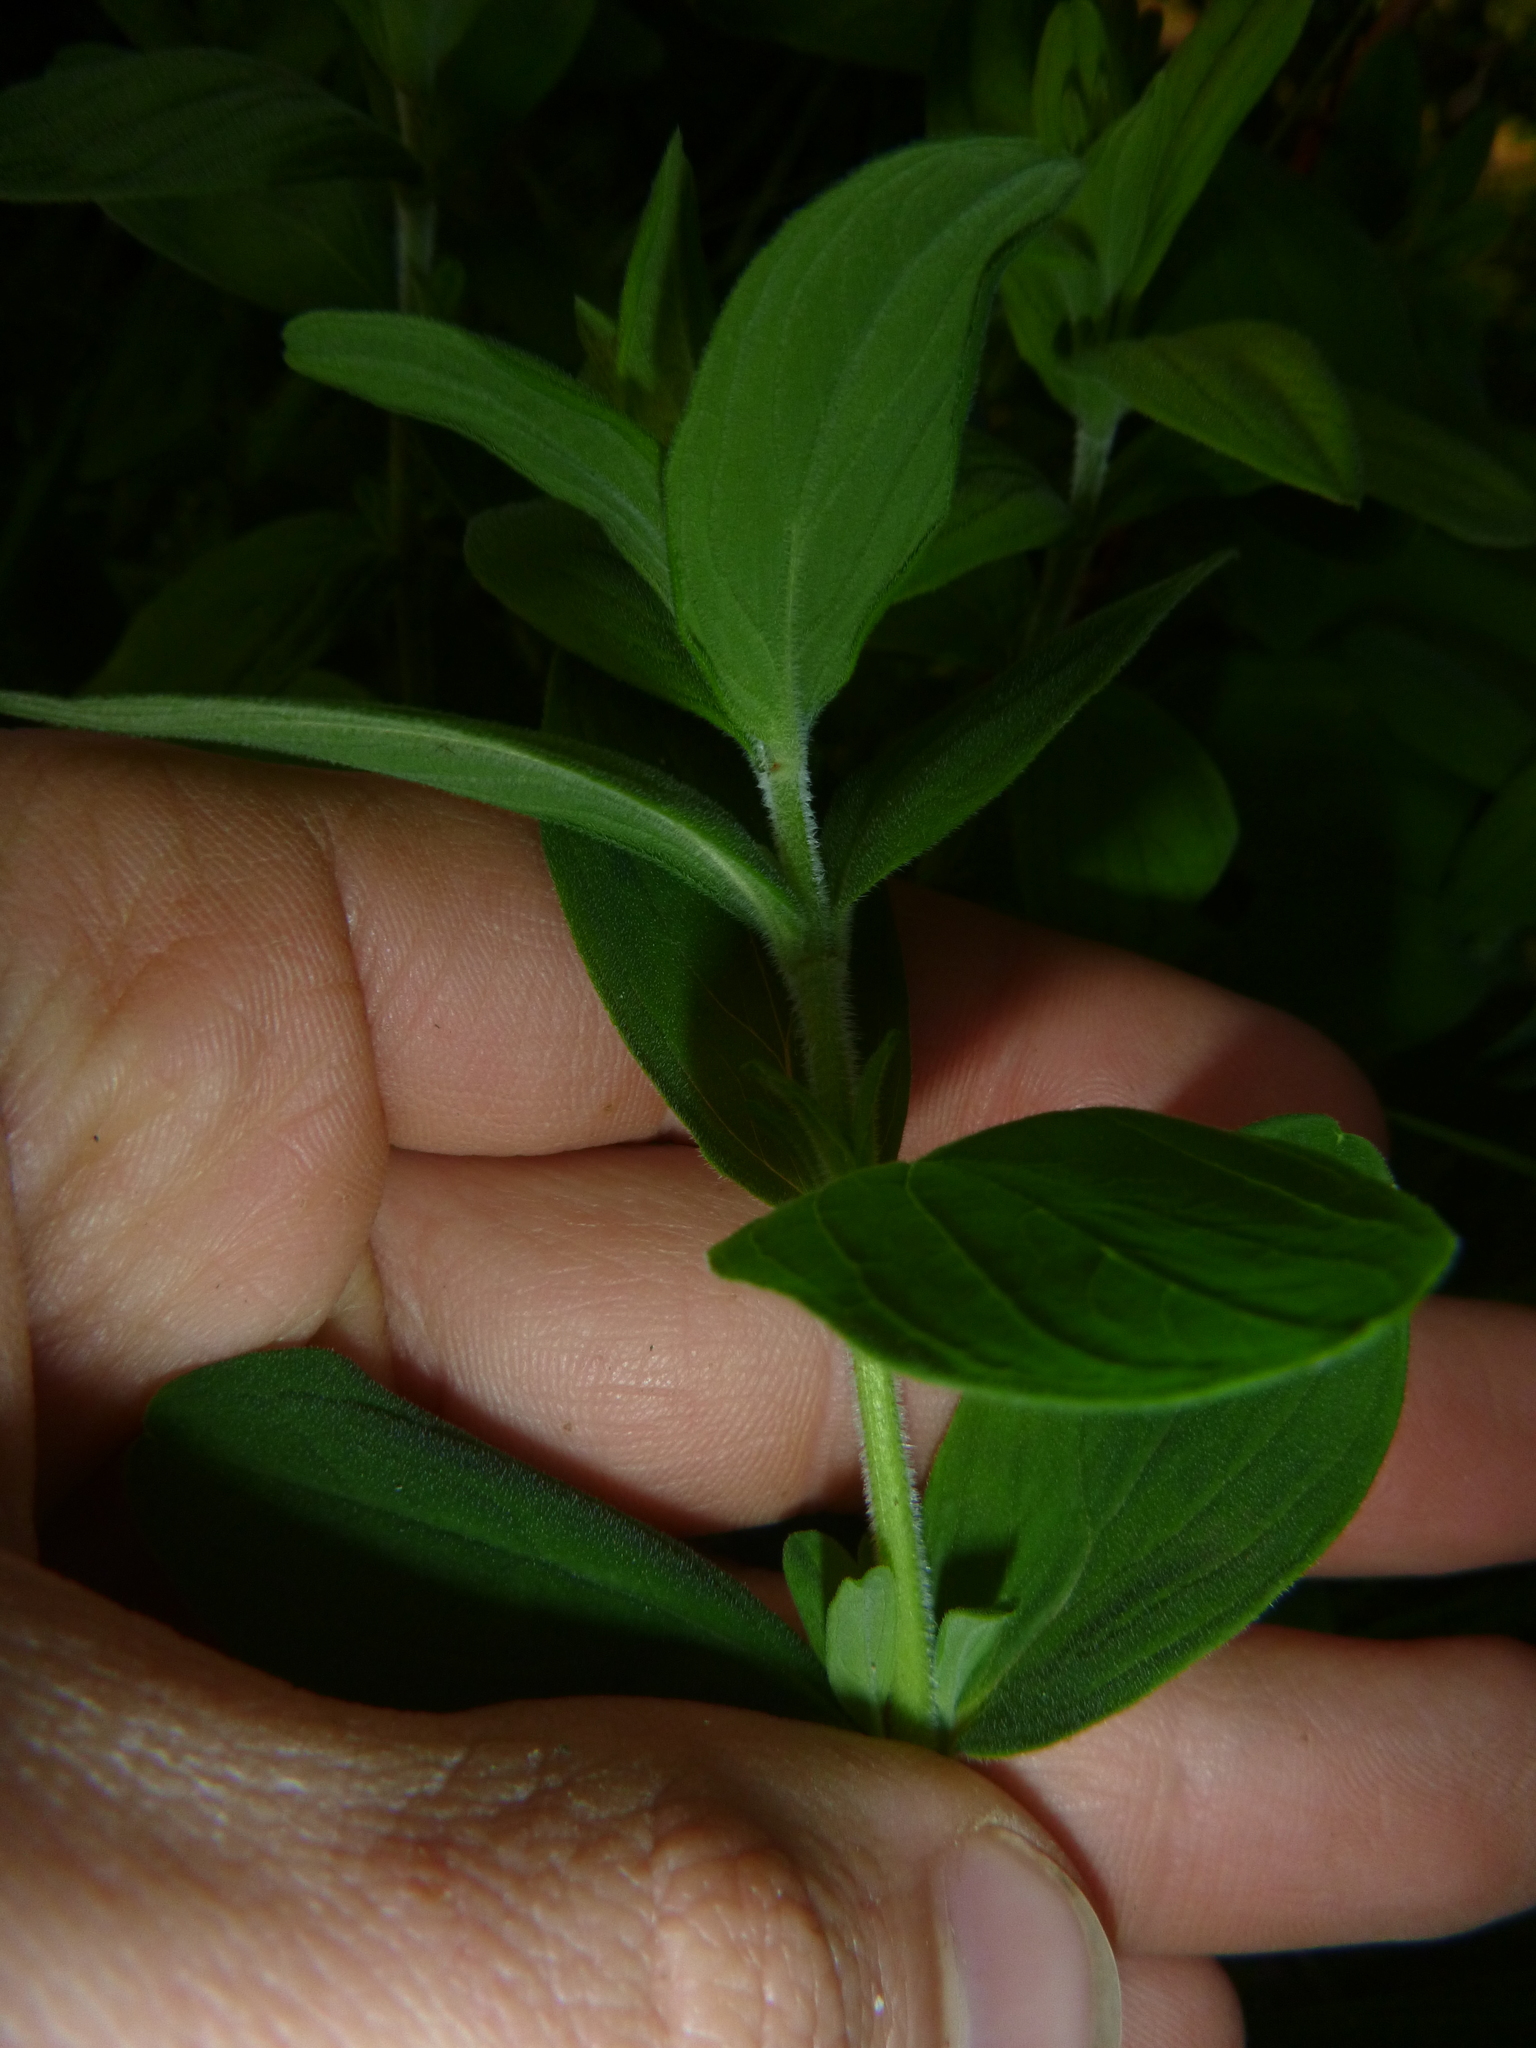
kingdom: Plantae
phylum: Tracheophyta
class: Magnoliopsida
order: Malpighiales
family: Hypericaceae
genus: Hypericum
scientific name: Hypericum hirsutum
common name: Hairy st. john's-wort
